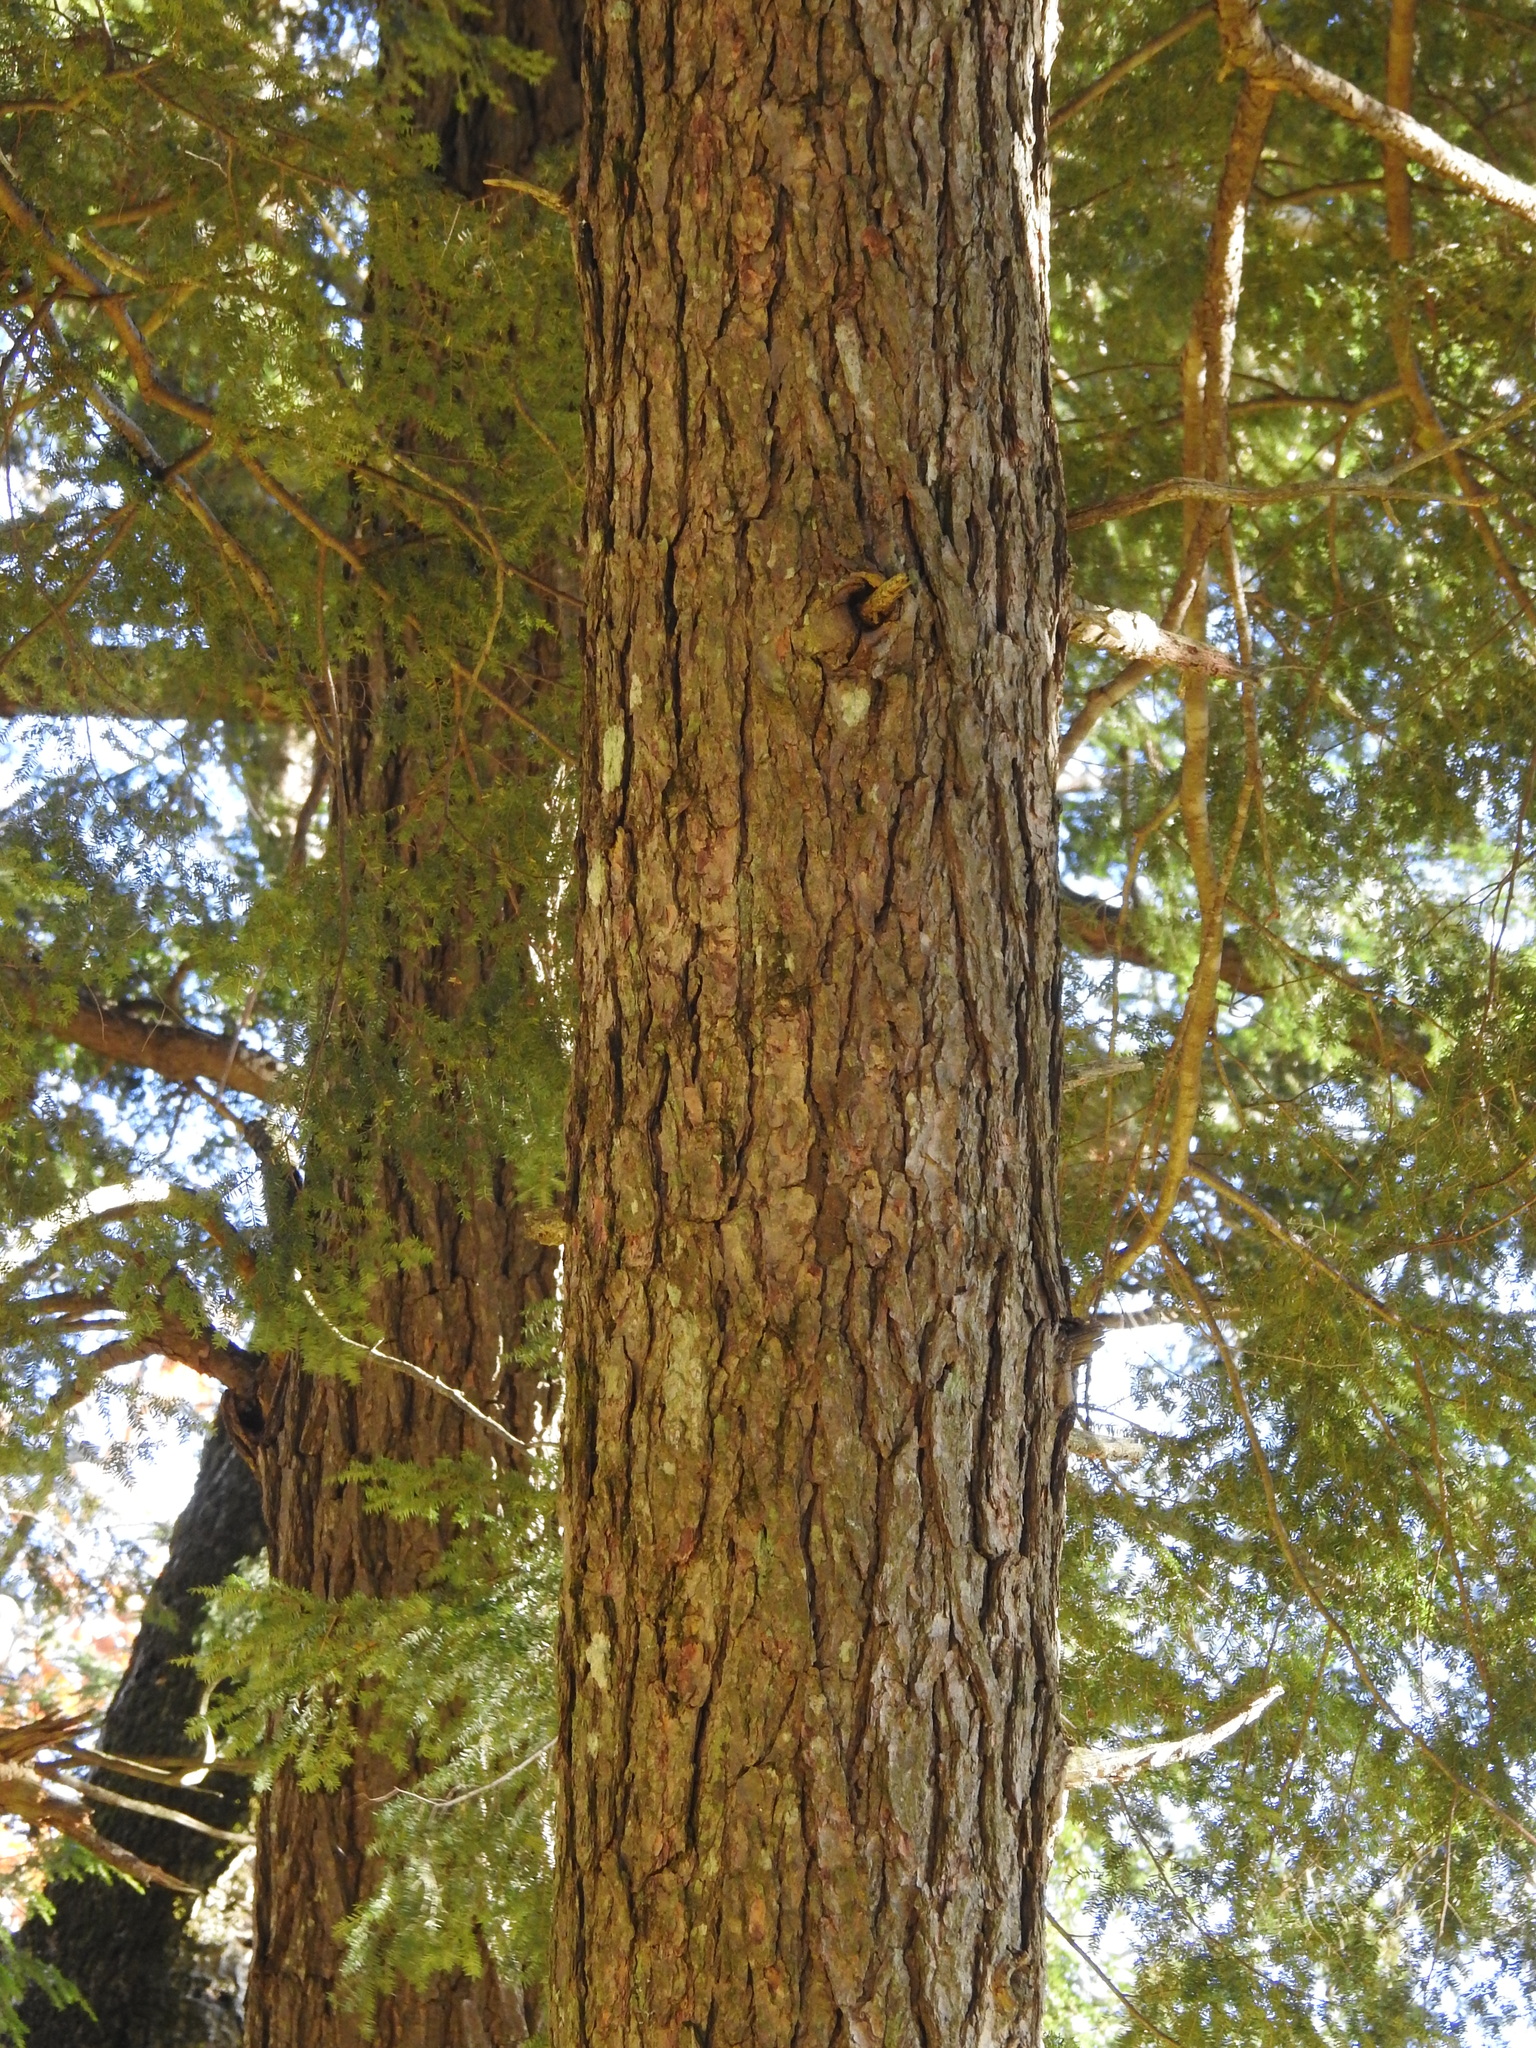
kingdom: Plantae
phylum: Tracheophyta
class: Pinopsida
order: Pinales
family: Pinaceae
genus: Tsuga
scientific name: Tsuga canadensis
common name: Eastern hemlock
